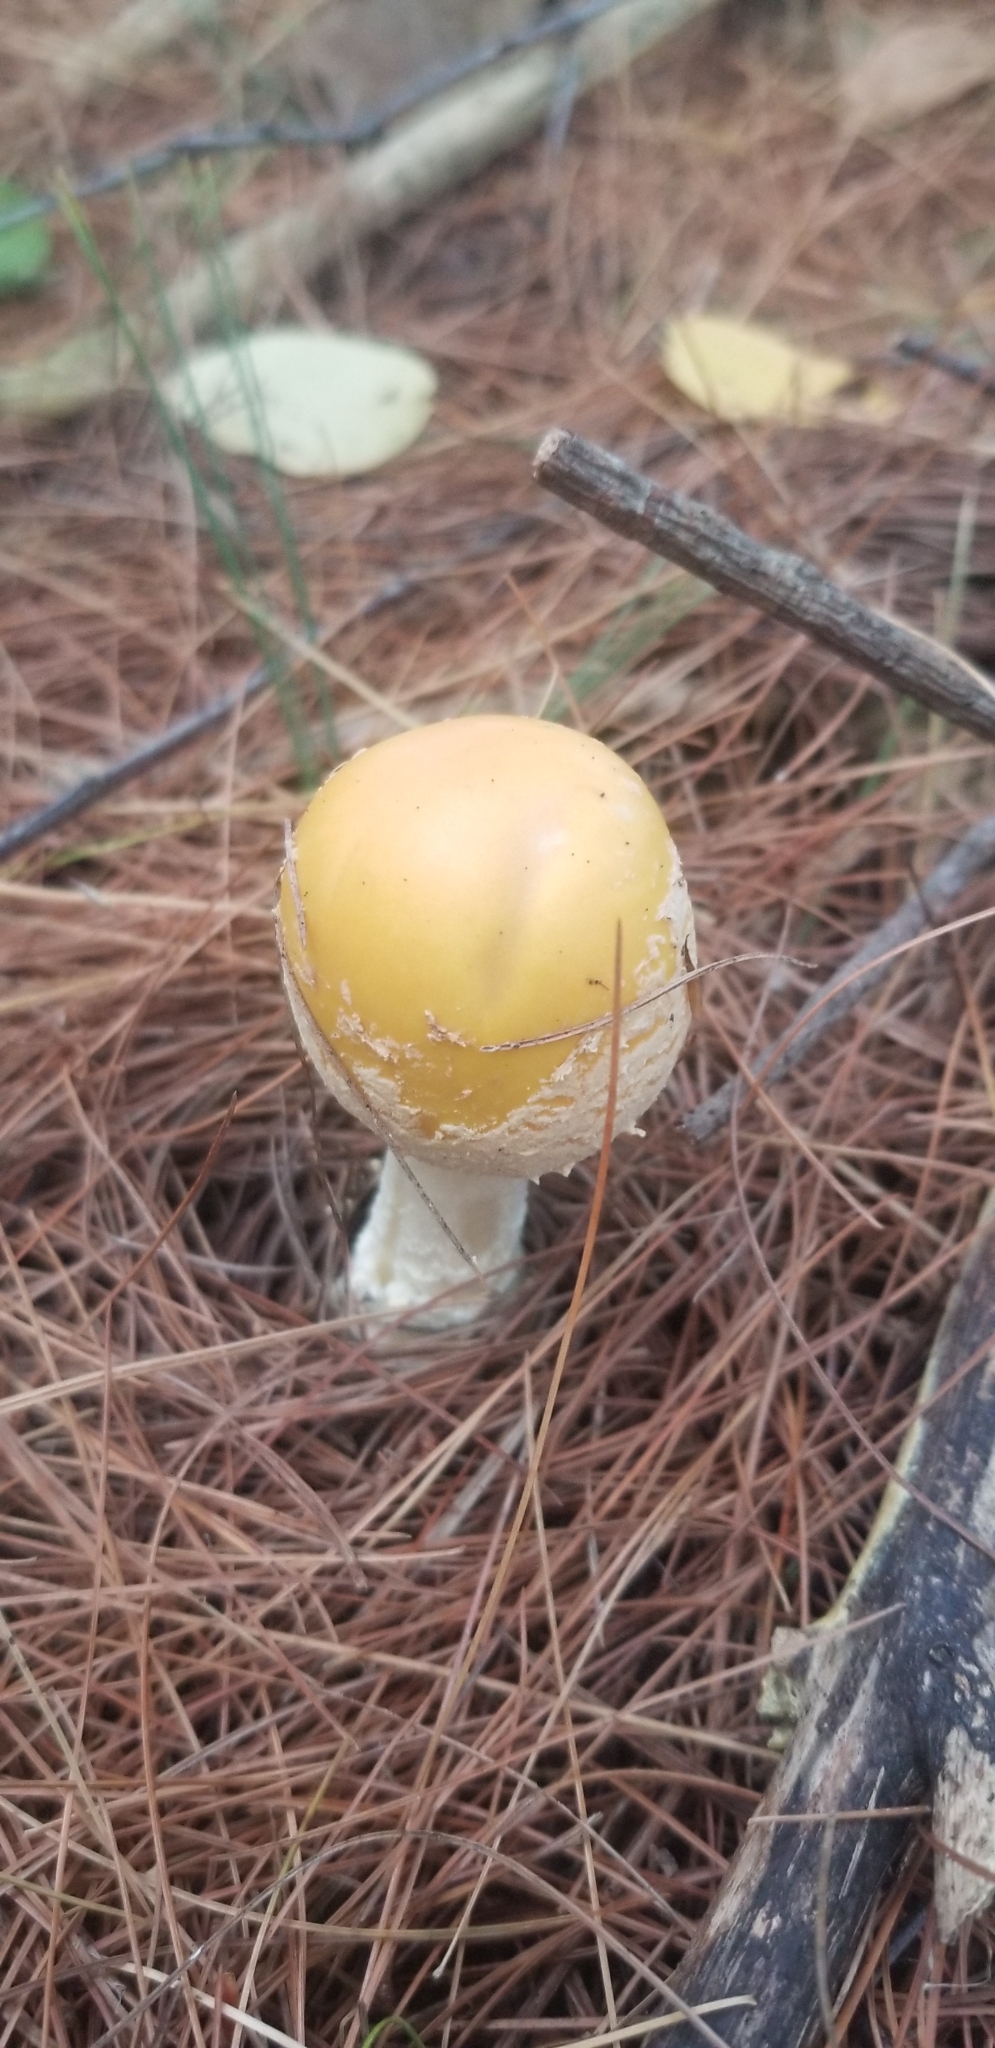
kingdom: Fungi
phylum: Basidiomycota
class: Agaricomycetes
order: Agaricales
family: Amanitaceae
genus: Amanita
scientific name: Amanita muscaria
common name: Fly agaric
